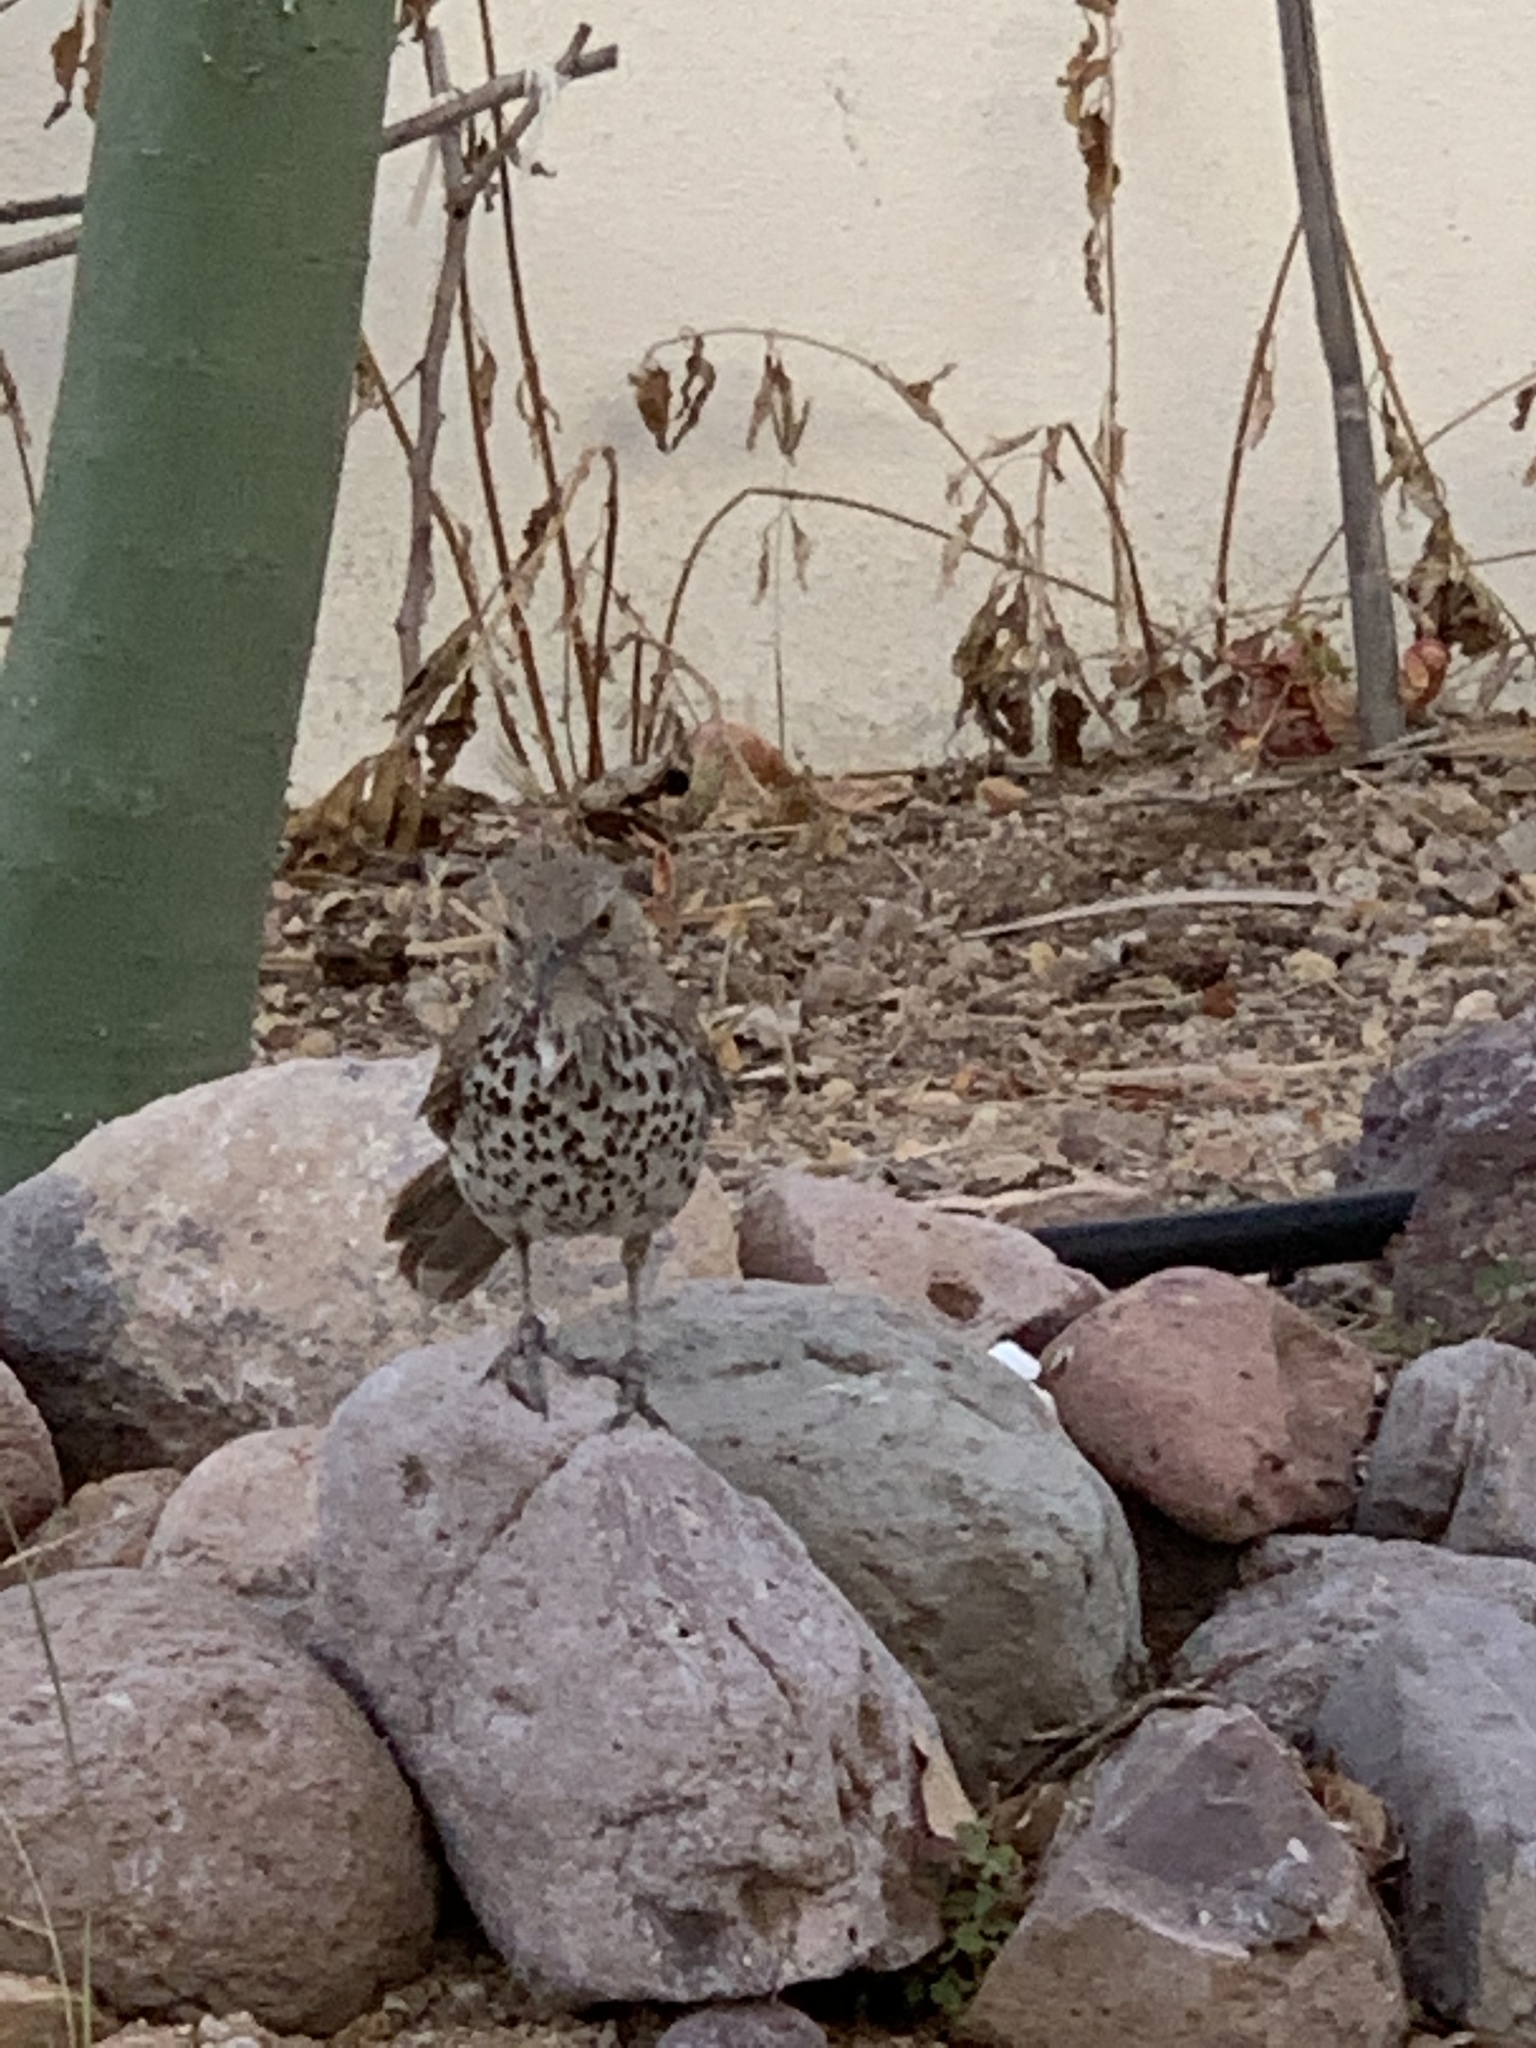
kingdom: Animalia
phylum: Chordata
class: Aves
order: Passeriformes
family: Mimidae
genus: Toxostoma
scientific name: Toxostoma cinereum
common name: Gray thrasher
